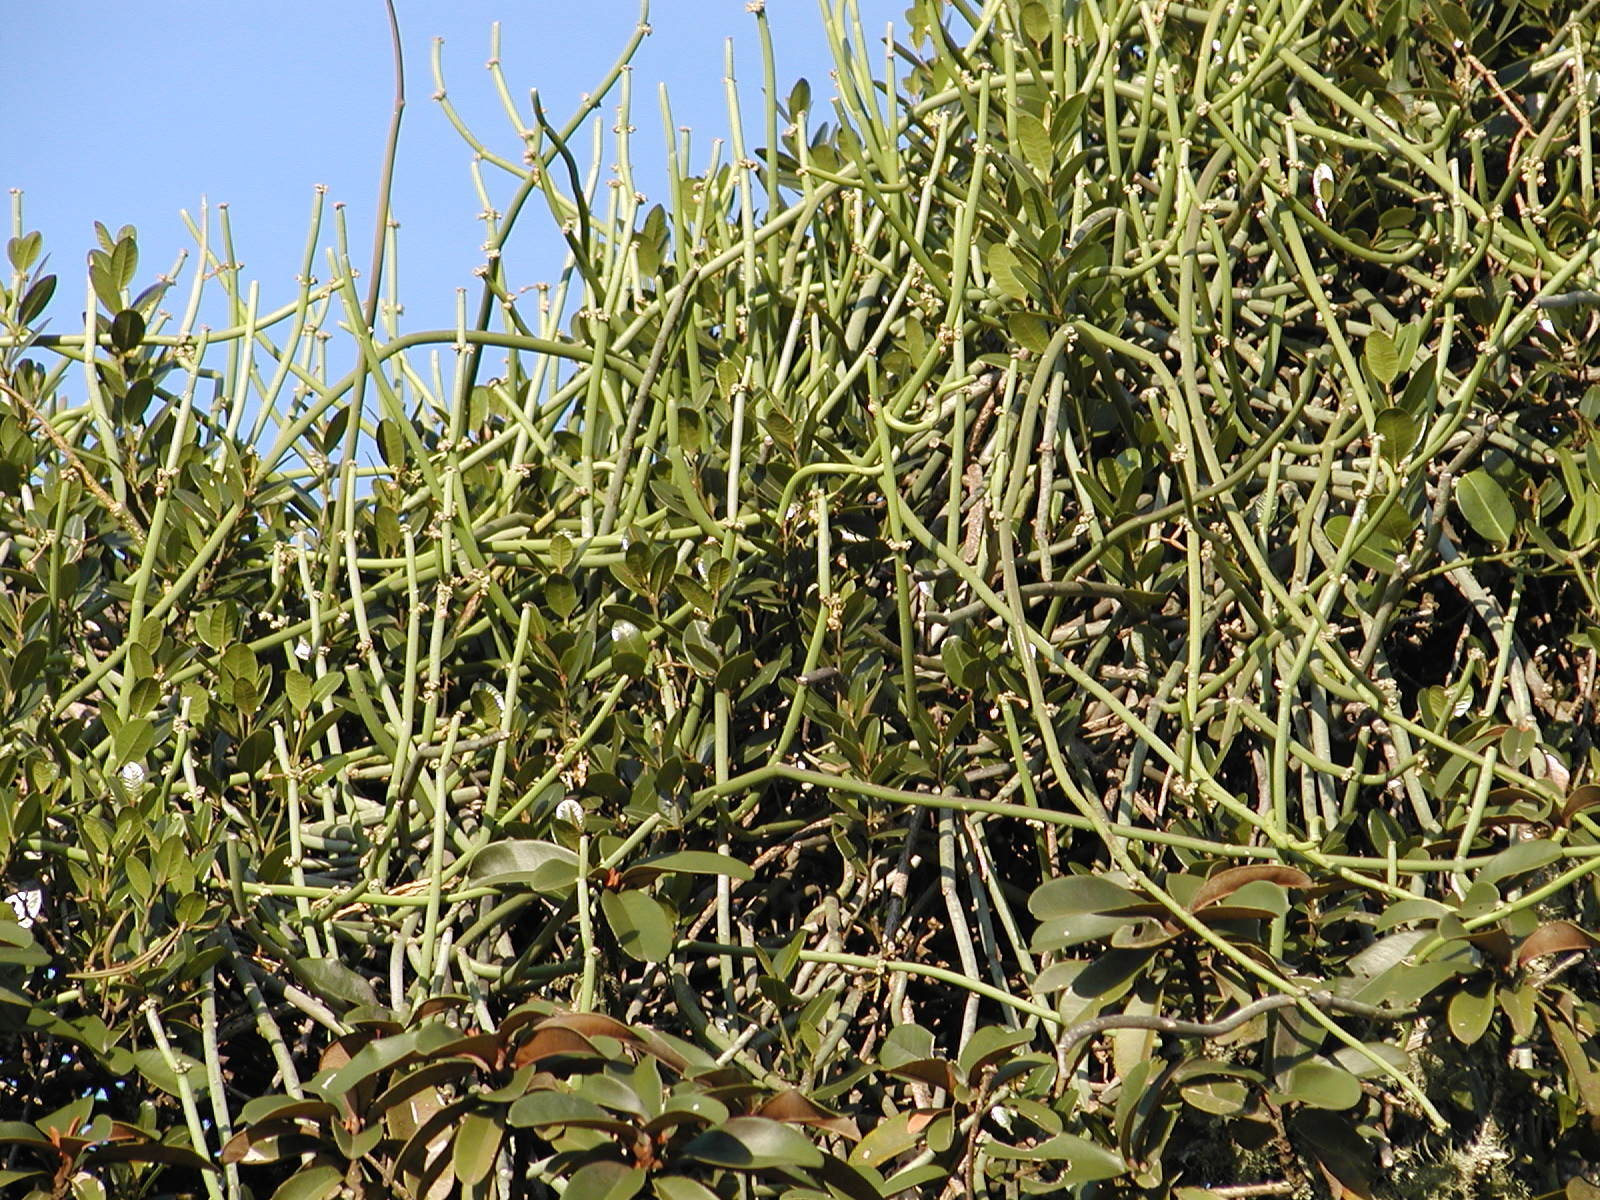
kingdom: Plantae
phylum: Tracheophyta
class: Magnoliopsida
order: Gentianales
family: Apocynaceae
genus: Cynanchum
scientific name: Cynanchum viminale
